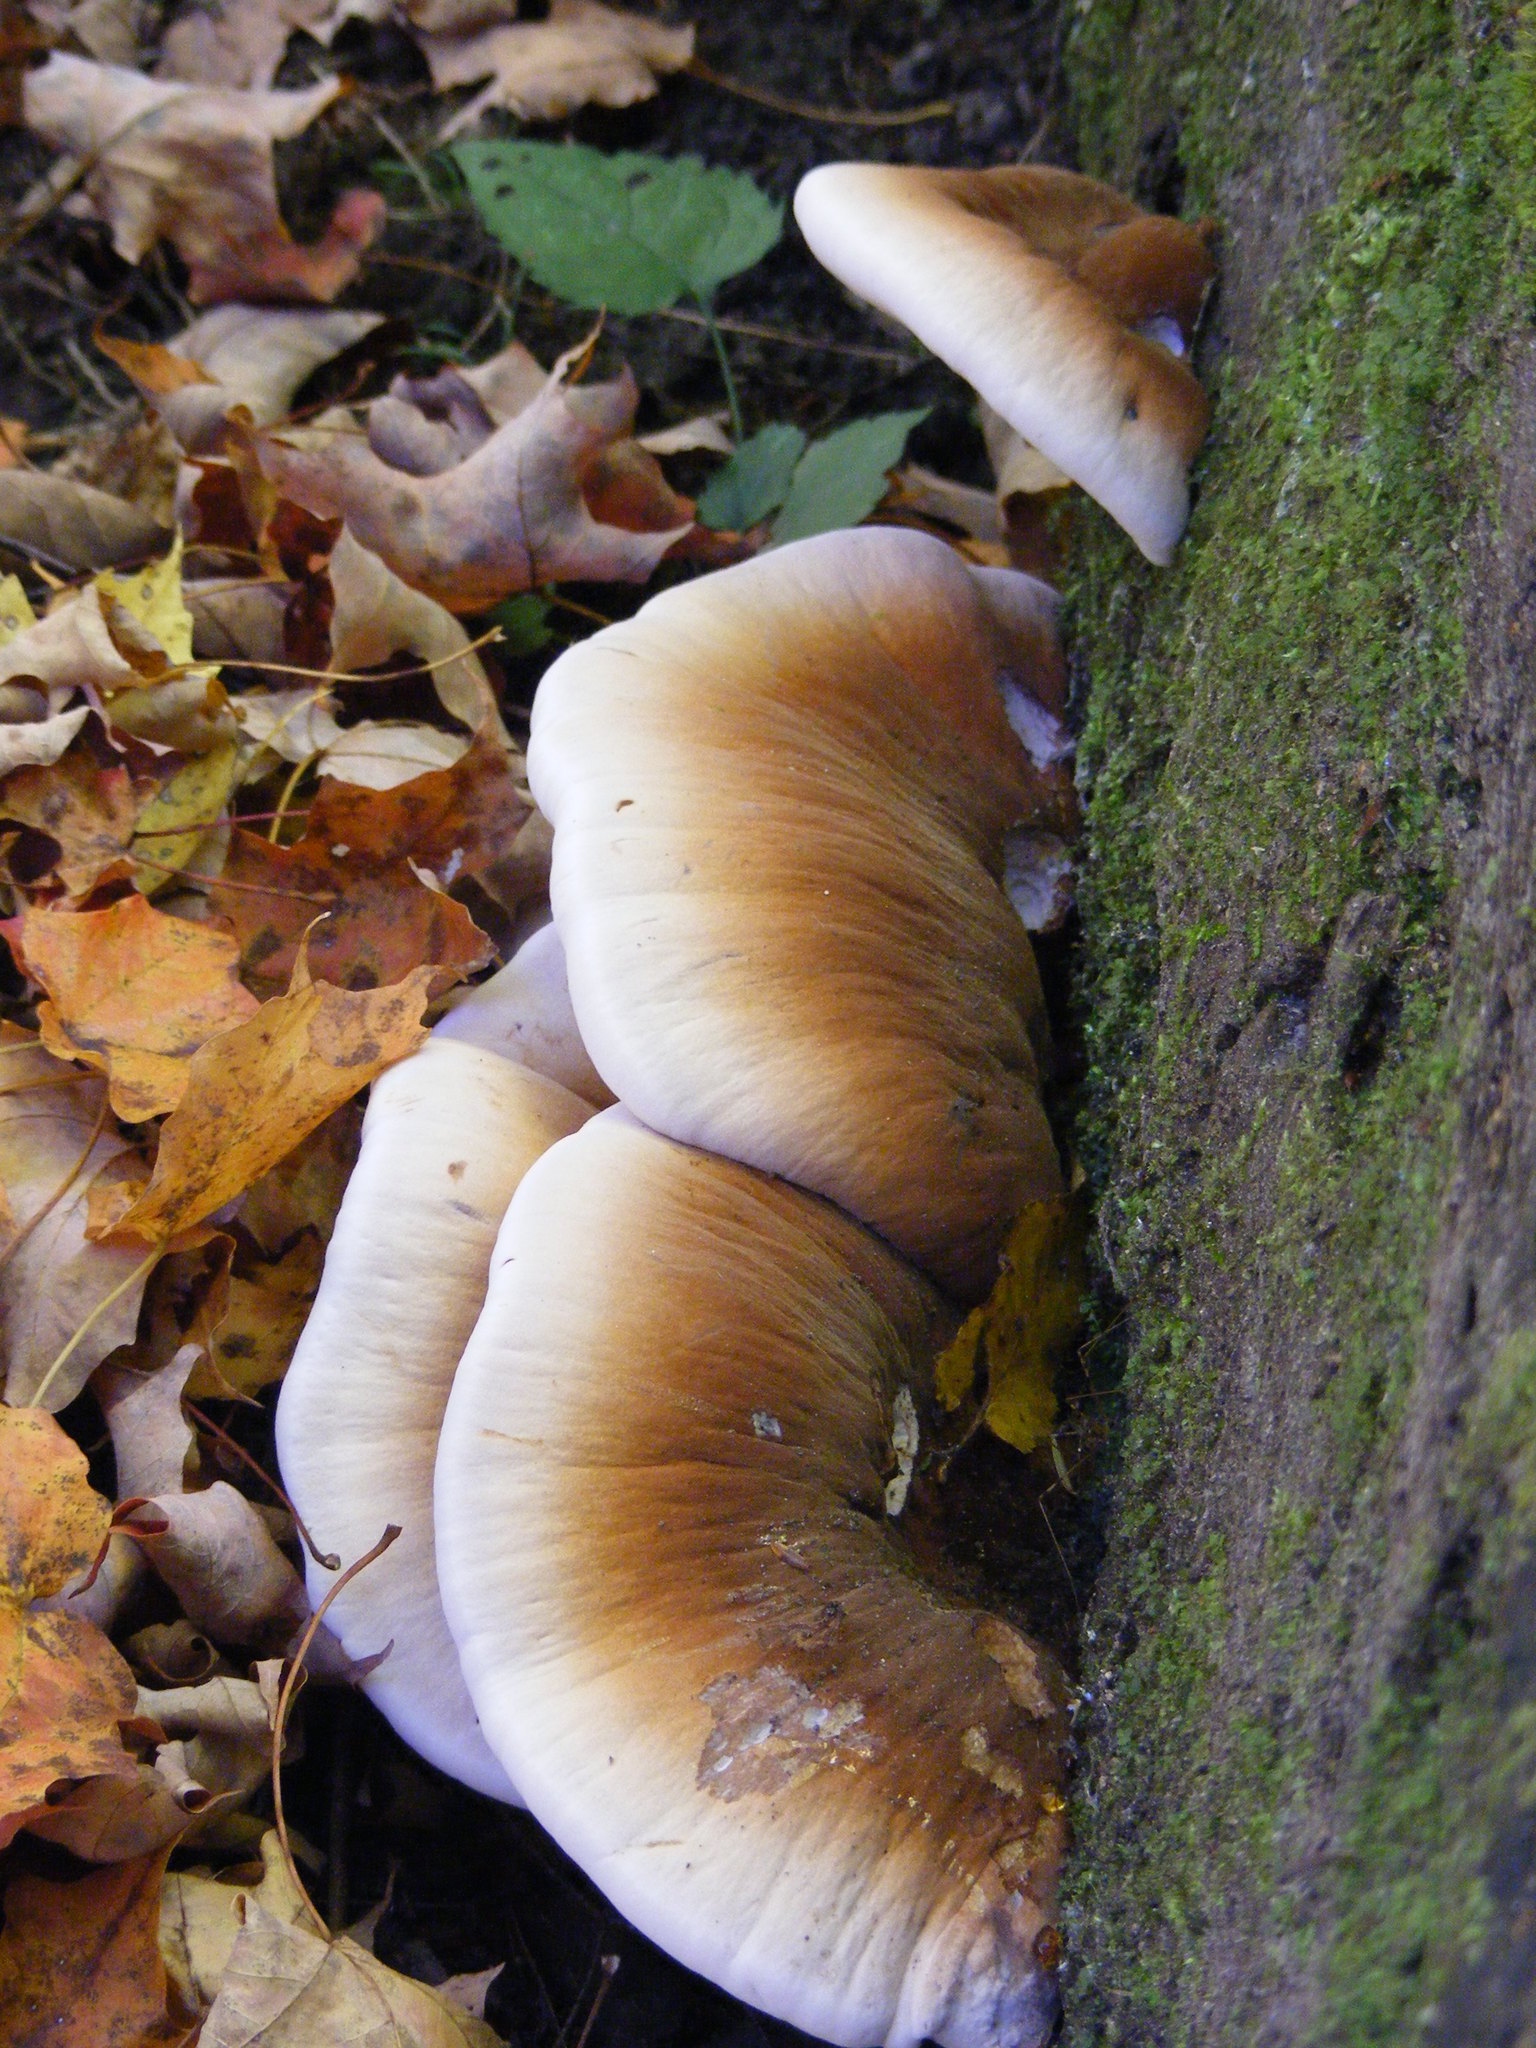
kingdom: Fungi
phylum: Basidiomycota
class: Agaricomycetes
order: Polyporales
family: Ischnodermataceae
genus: Ischnoderma
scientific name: Ischnoderma resinosum
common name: Resinous polypore
